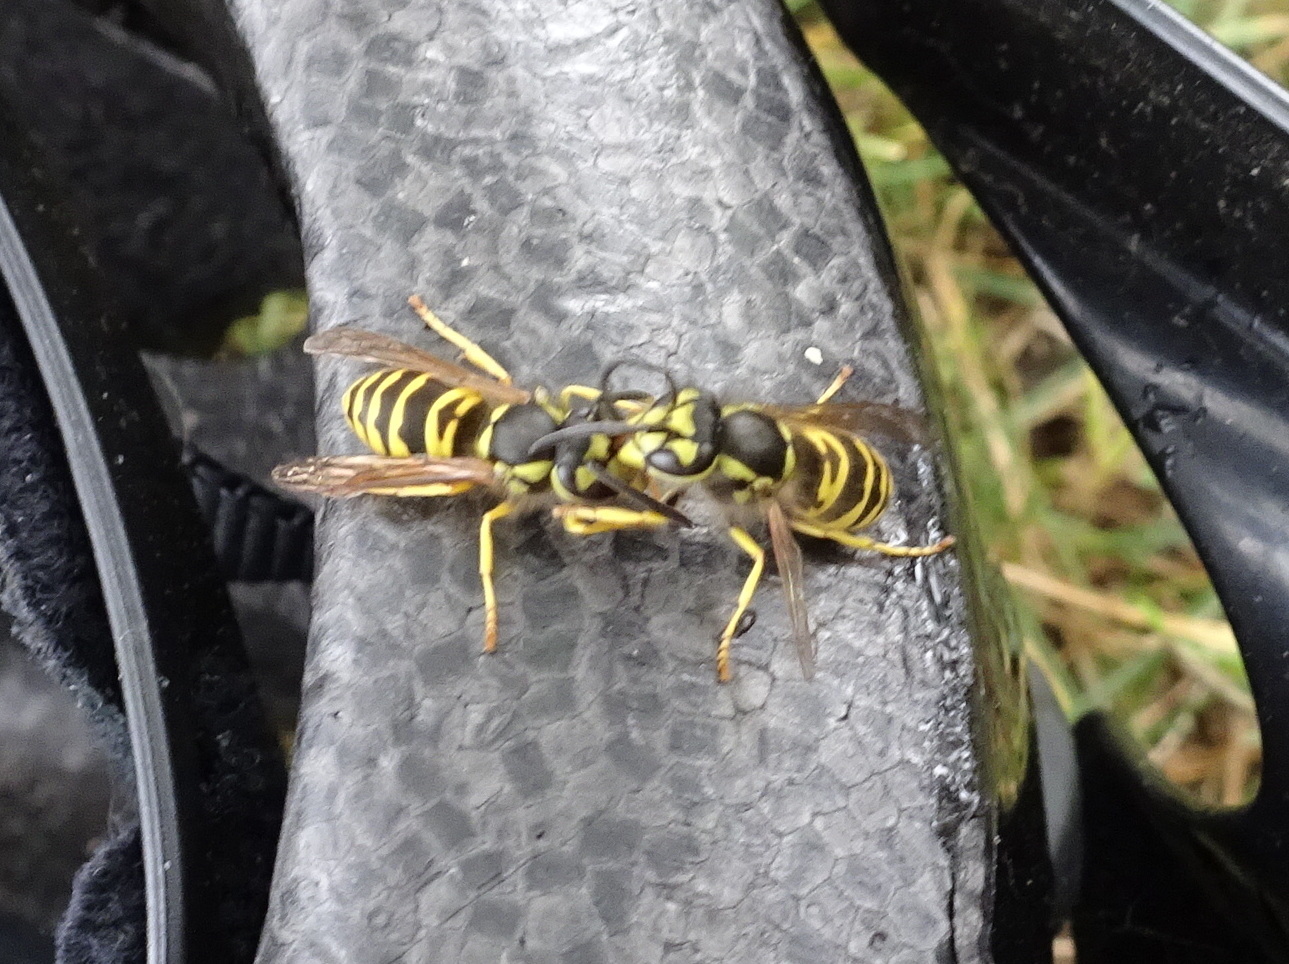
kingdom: Animalia
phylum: Arthropoda
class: Insecta
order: Hymenoptera
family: Vespidae
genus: Vespula
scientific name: Vespula maculifrons
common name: Eastern yellowjacket
